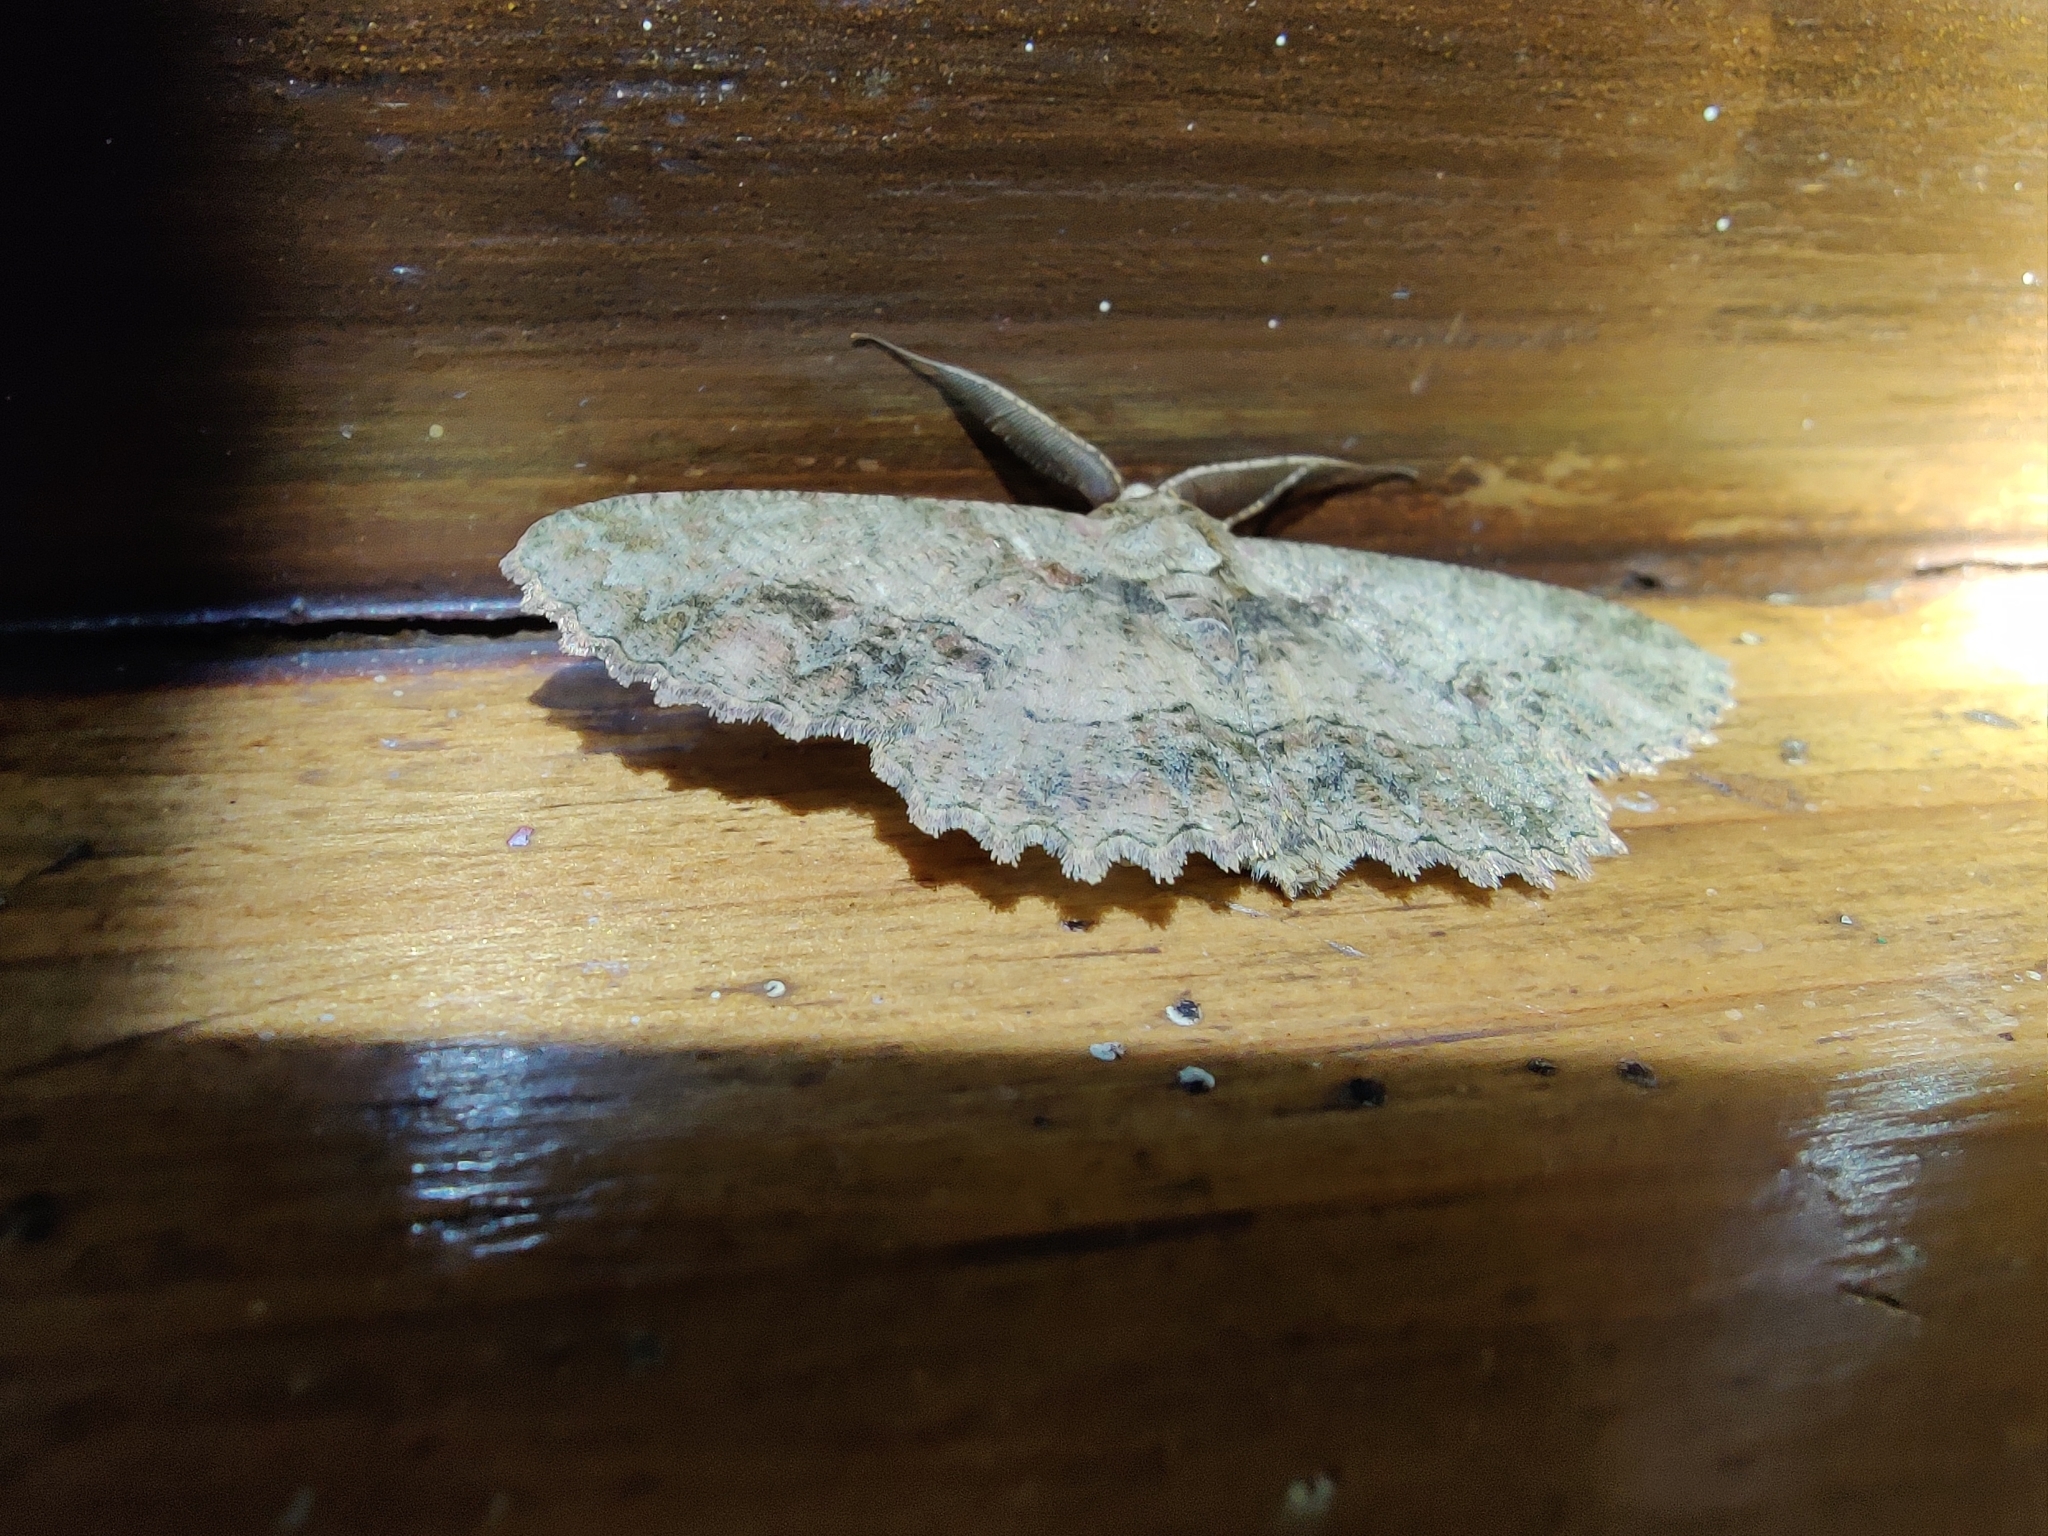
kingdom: Animalia
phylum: Arthropoda
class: Insecta
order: Lepidoptera
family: Geometridae
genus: Darisa
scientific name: Darisa firmilinea
